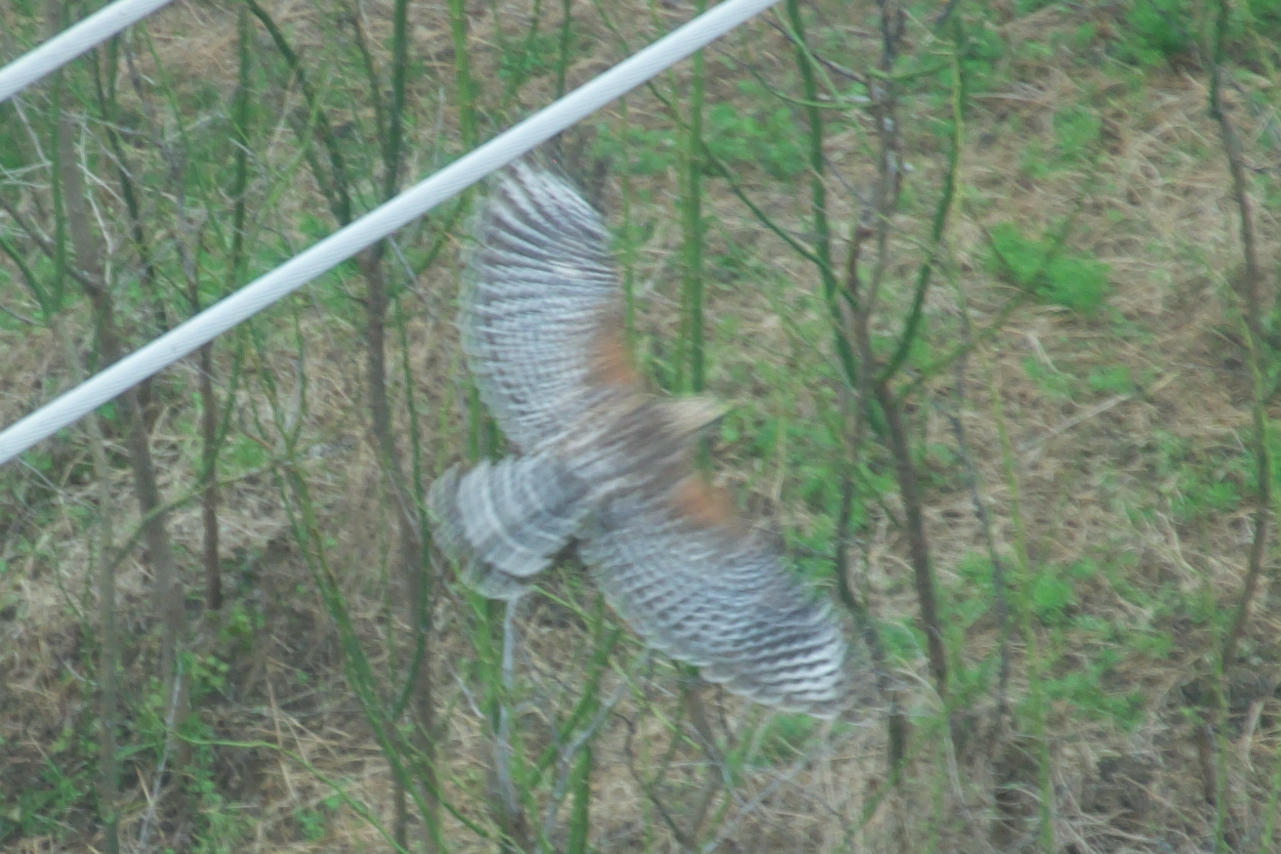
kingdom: Animalia
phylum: Chordata
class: Aves
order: Accipitriformes
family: Accipitridae
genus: Buteo
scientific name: Buteo lineatus
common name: Red-shouldered hawk
